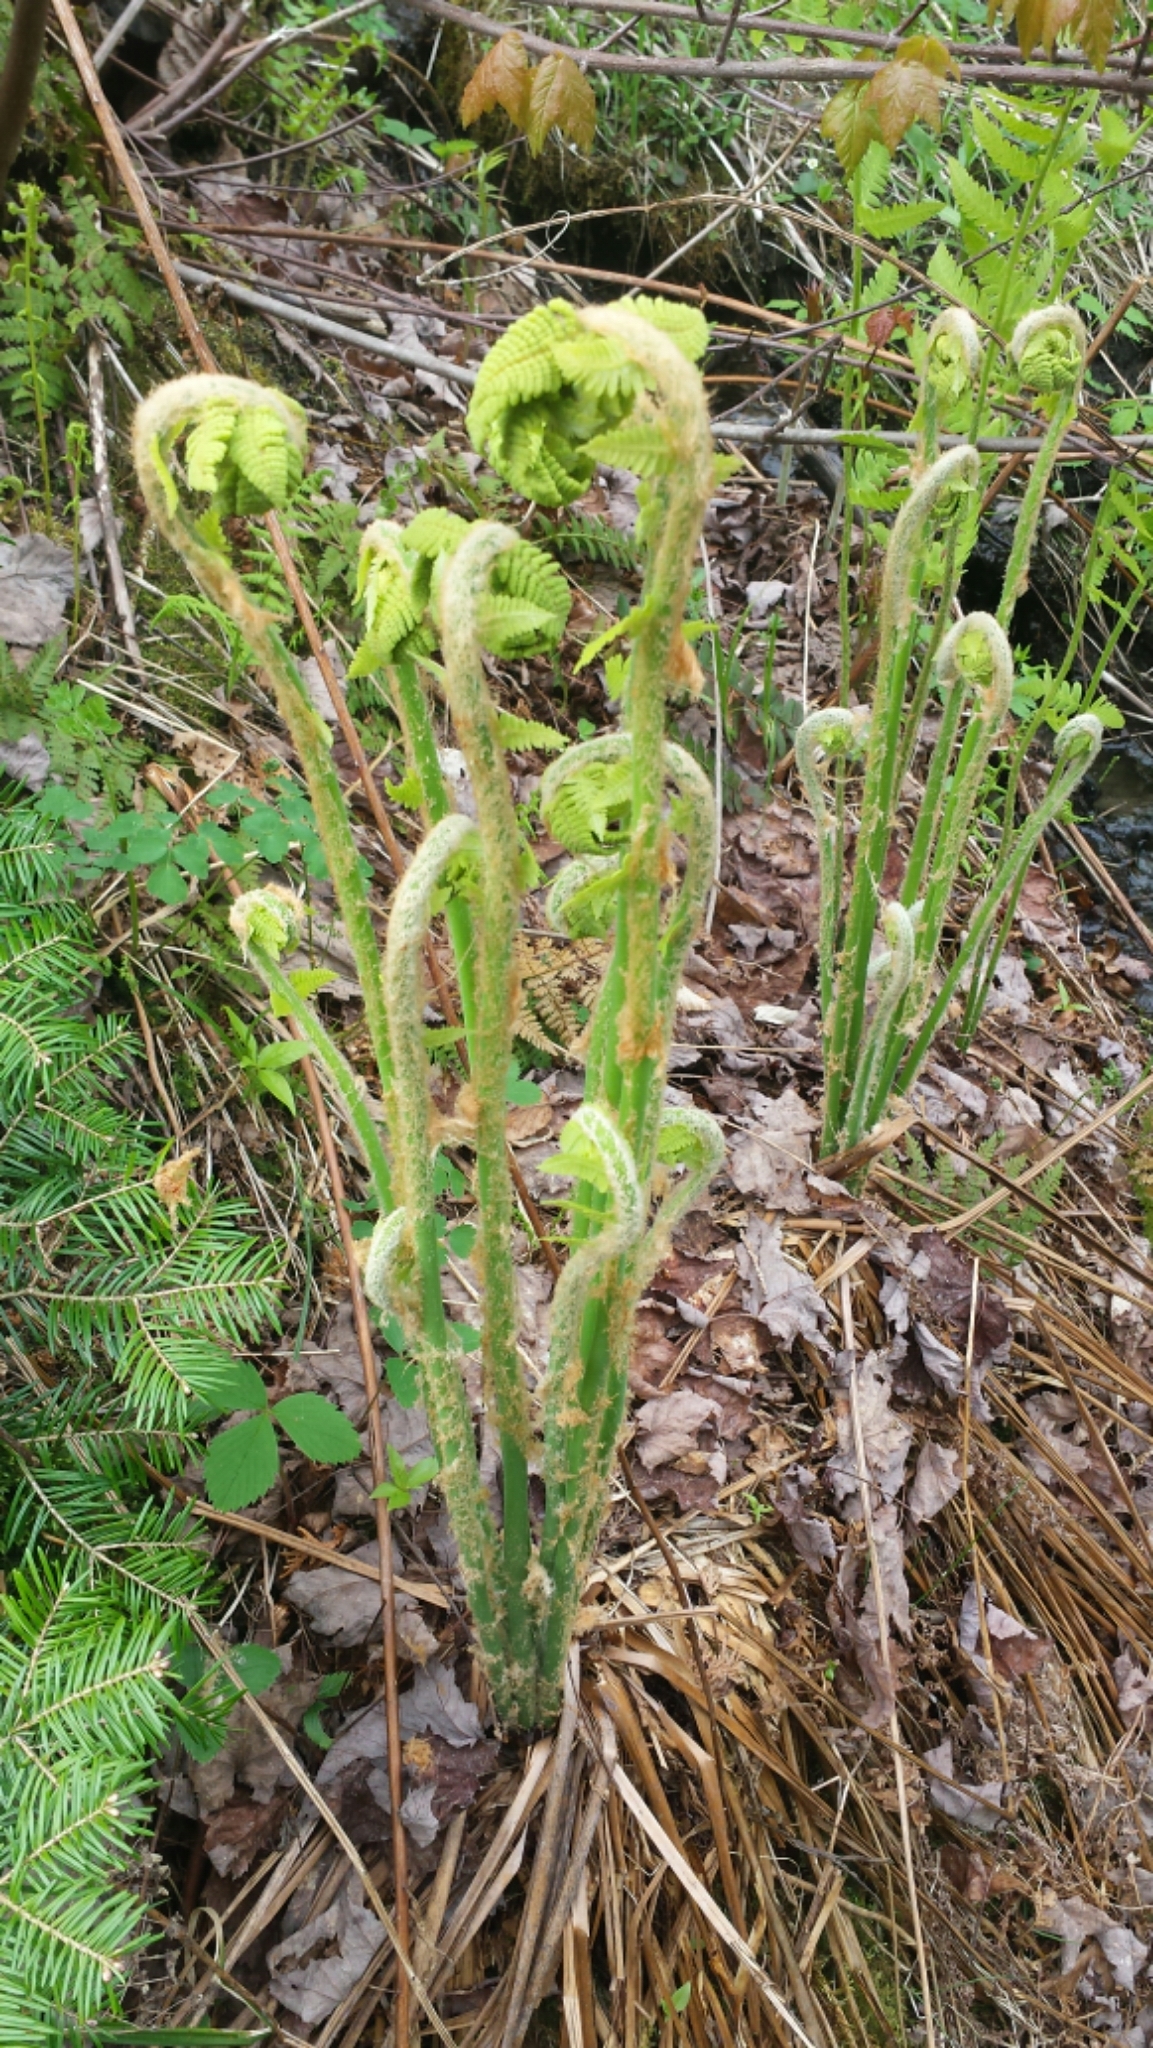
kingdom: Plantae
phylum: Tracheophyta
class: Polypodiopsida
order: Osmundales
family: Osmundaceae
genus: Osmundastrum
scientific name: Osmundastrum cinnamomeum
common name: Cinnamon fern
